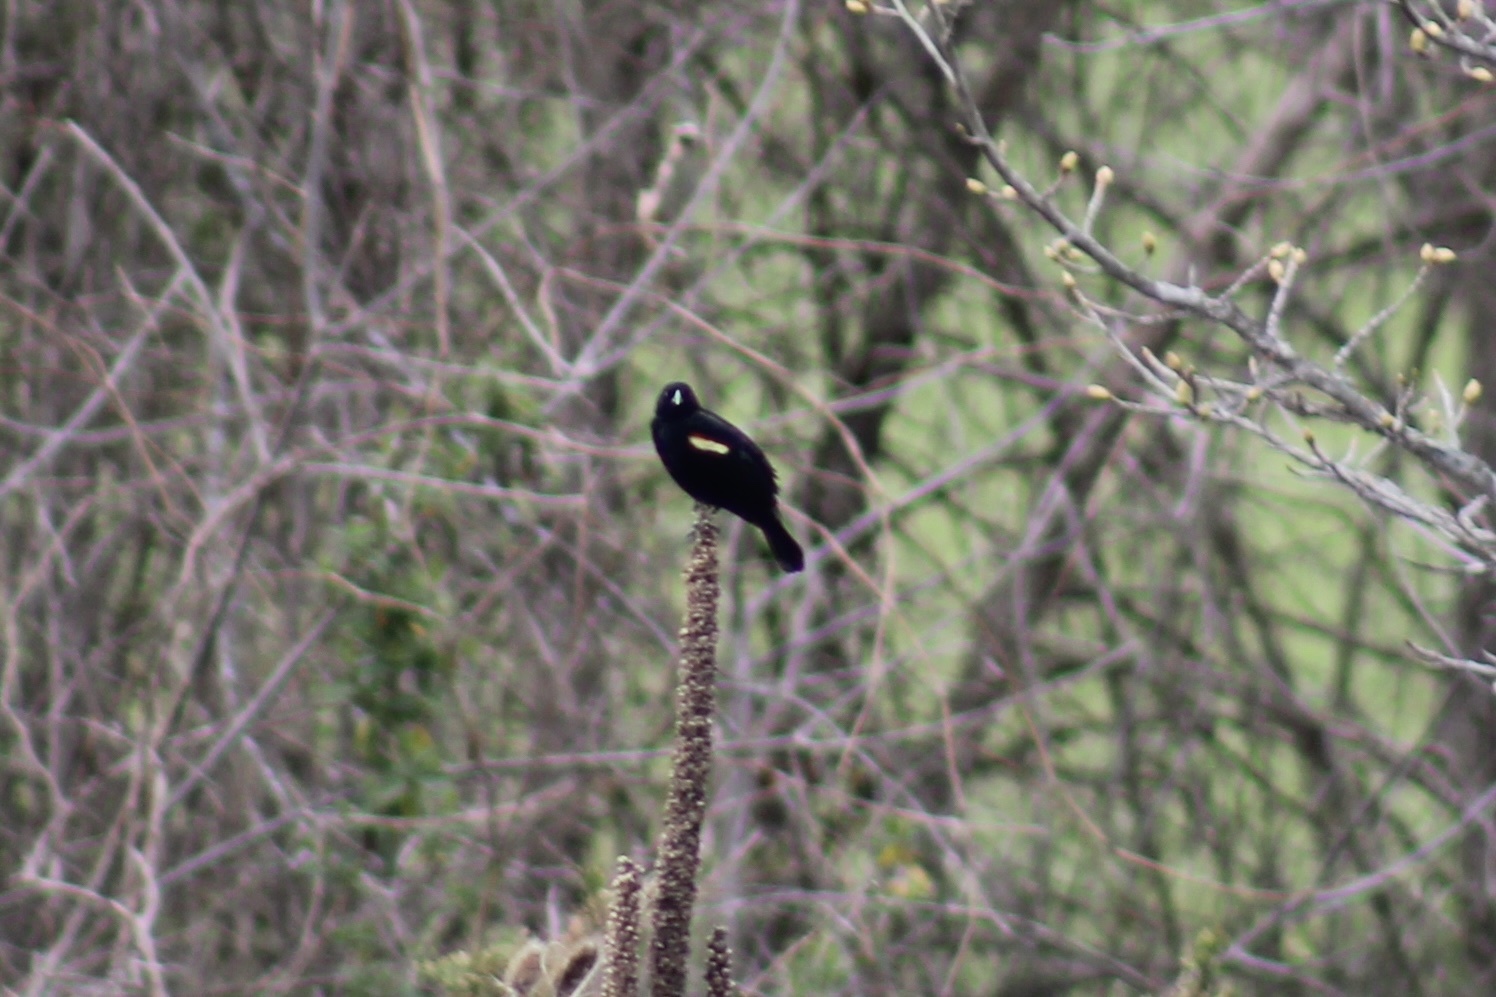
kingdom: Animalia
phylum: Chordata
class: Aves
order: Passeriformes
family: Icteridae
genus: Agelaius
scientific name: Agelaius phoeniceus
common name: Red-winged blackbird
